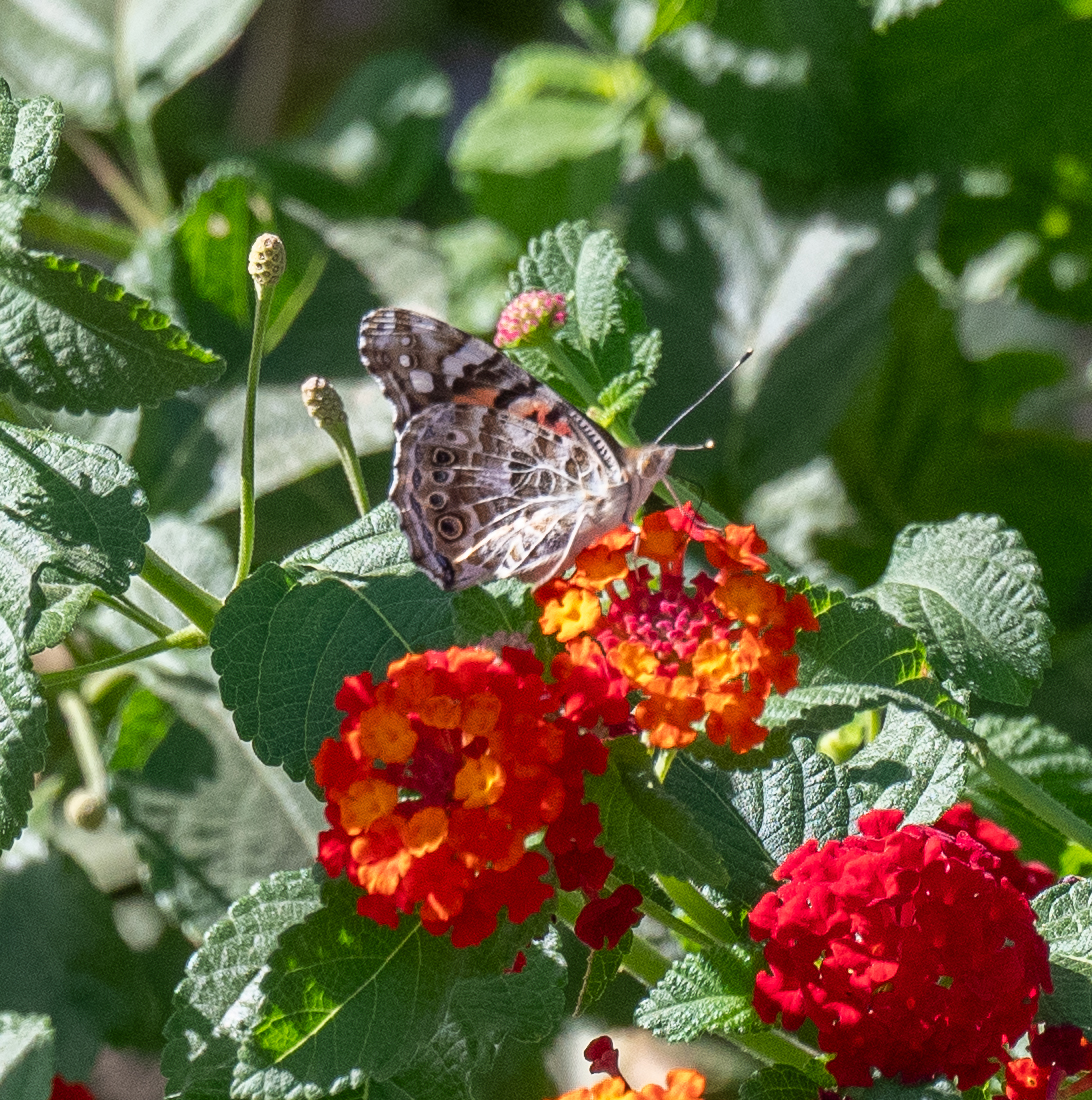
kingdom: Animalia
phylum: Arthropoda
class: Insecta
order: Lepidoptera
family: Nymphalidae
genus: Vanessa
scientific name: Vanessa cardui
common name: Painted lady
